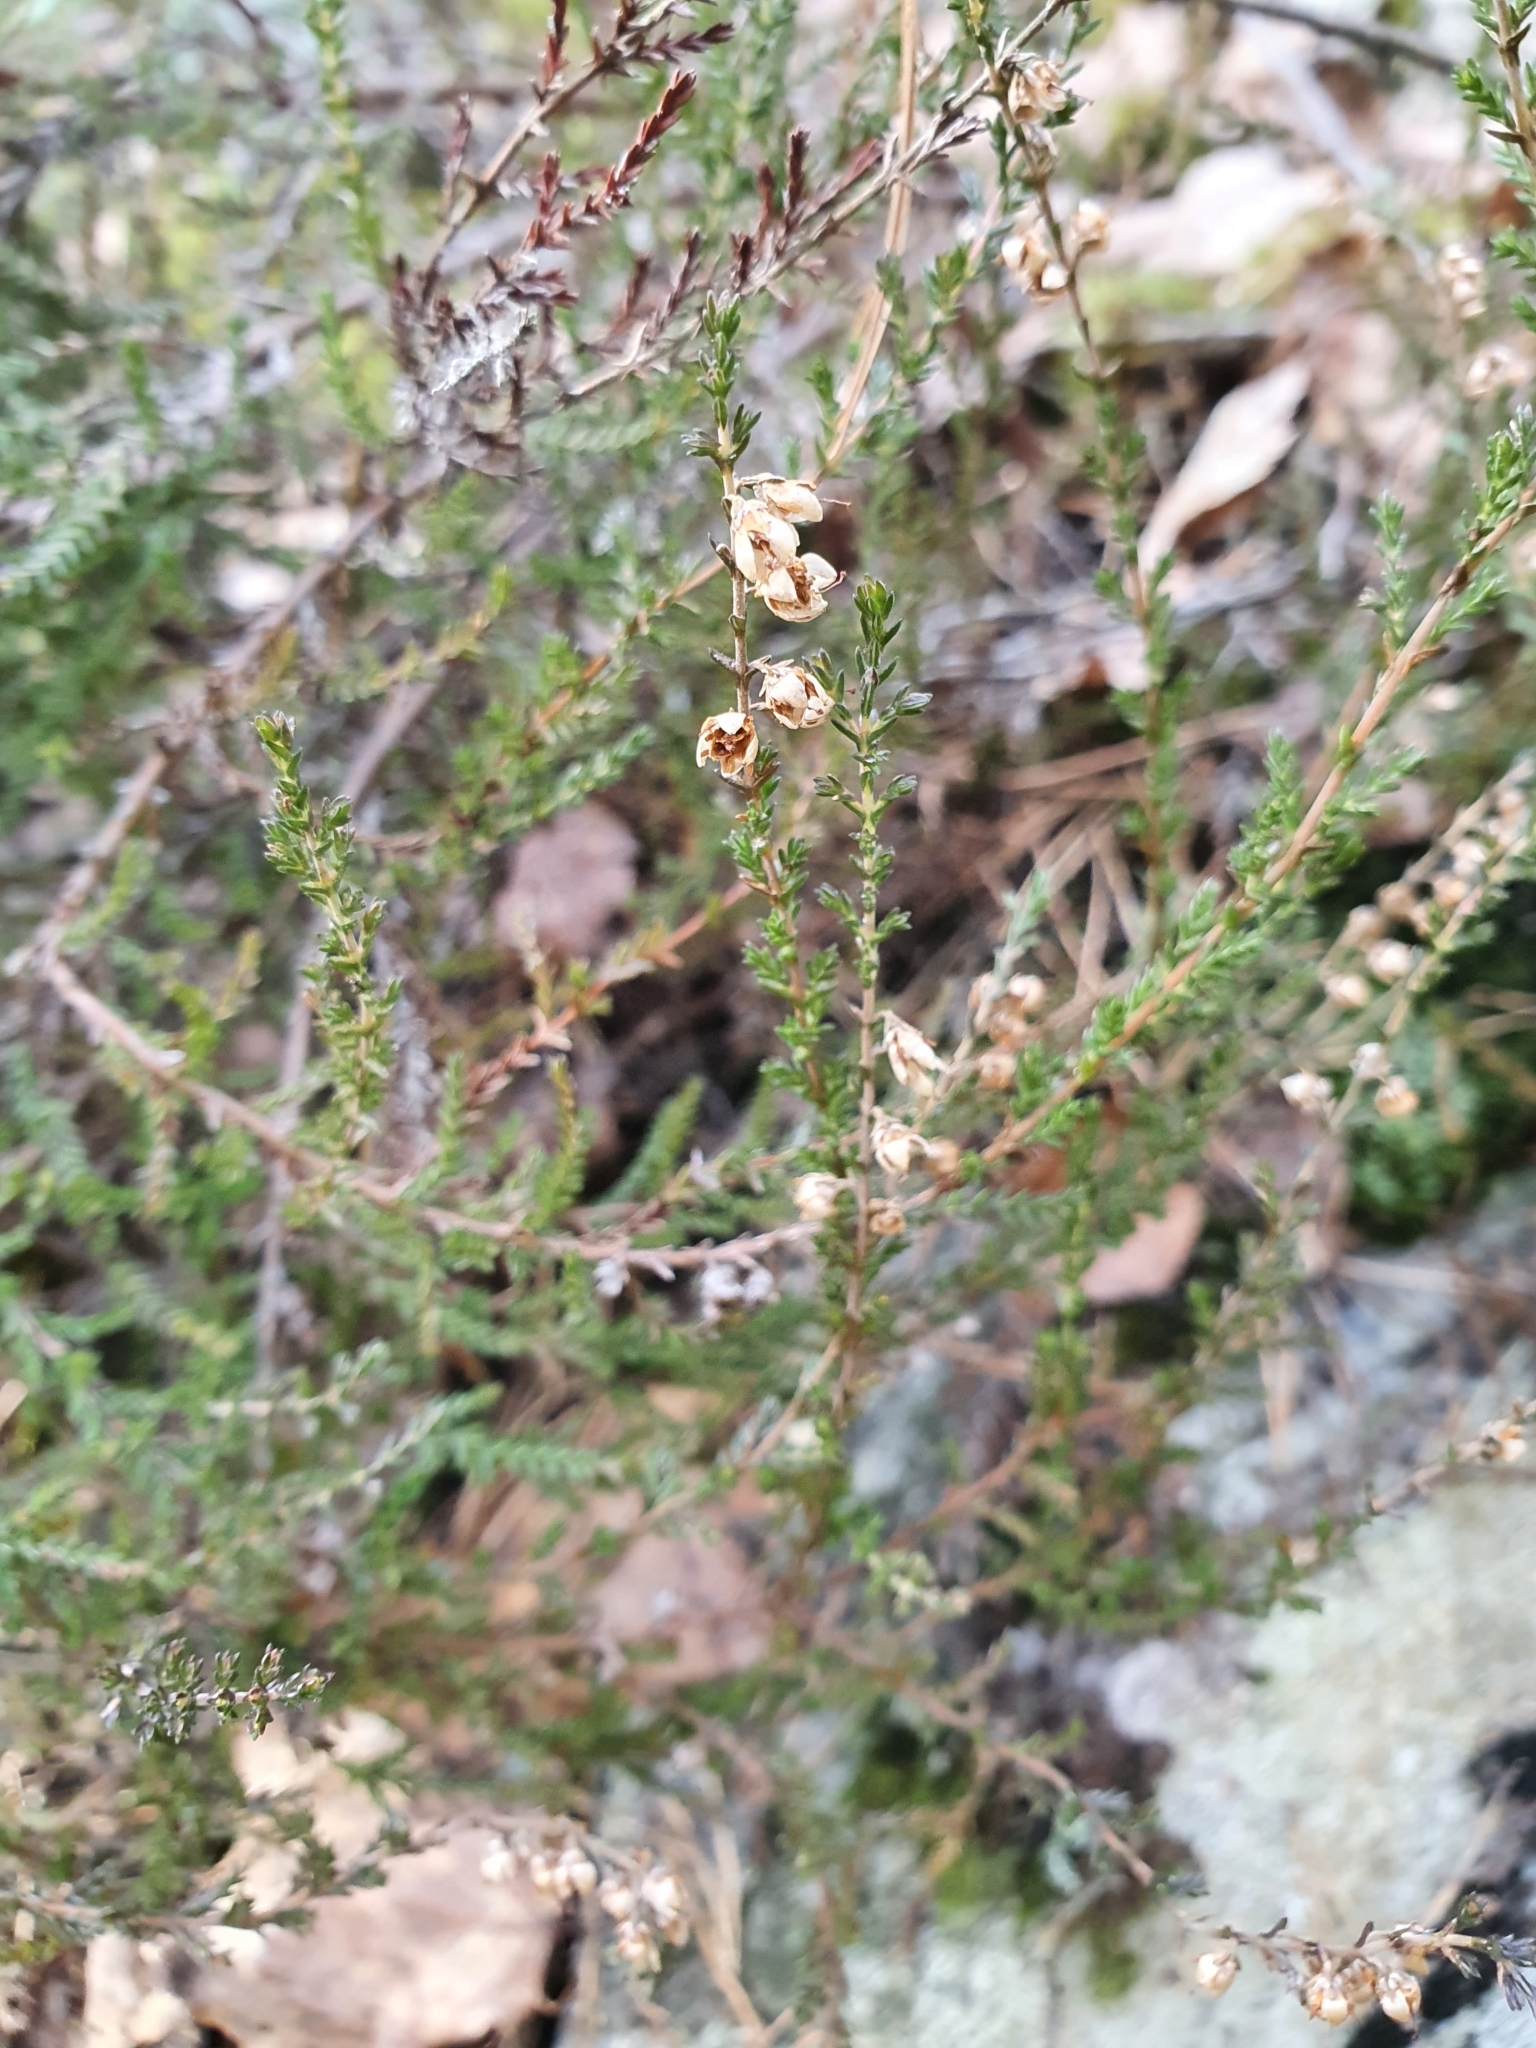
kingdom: Plantae
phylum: Tracheophyta
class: Magnoliopsida
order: Ericales
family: Ericaceae
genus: Calluna
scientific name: Calluna vulgaris
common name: Heather
